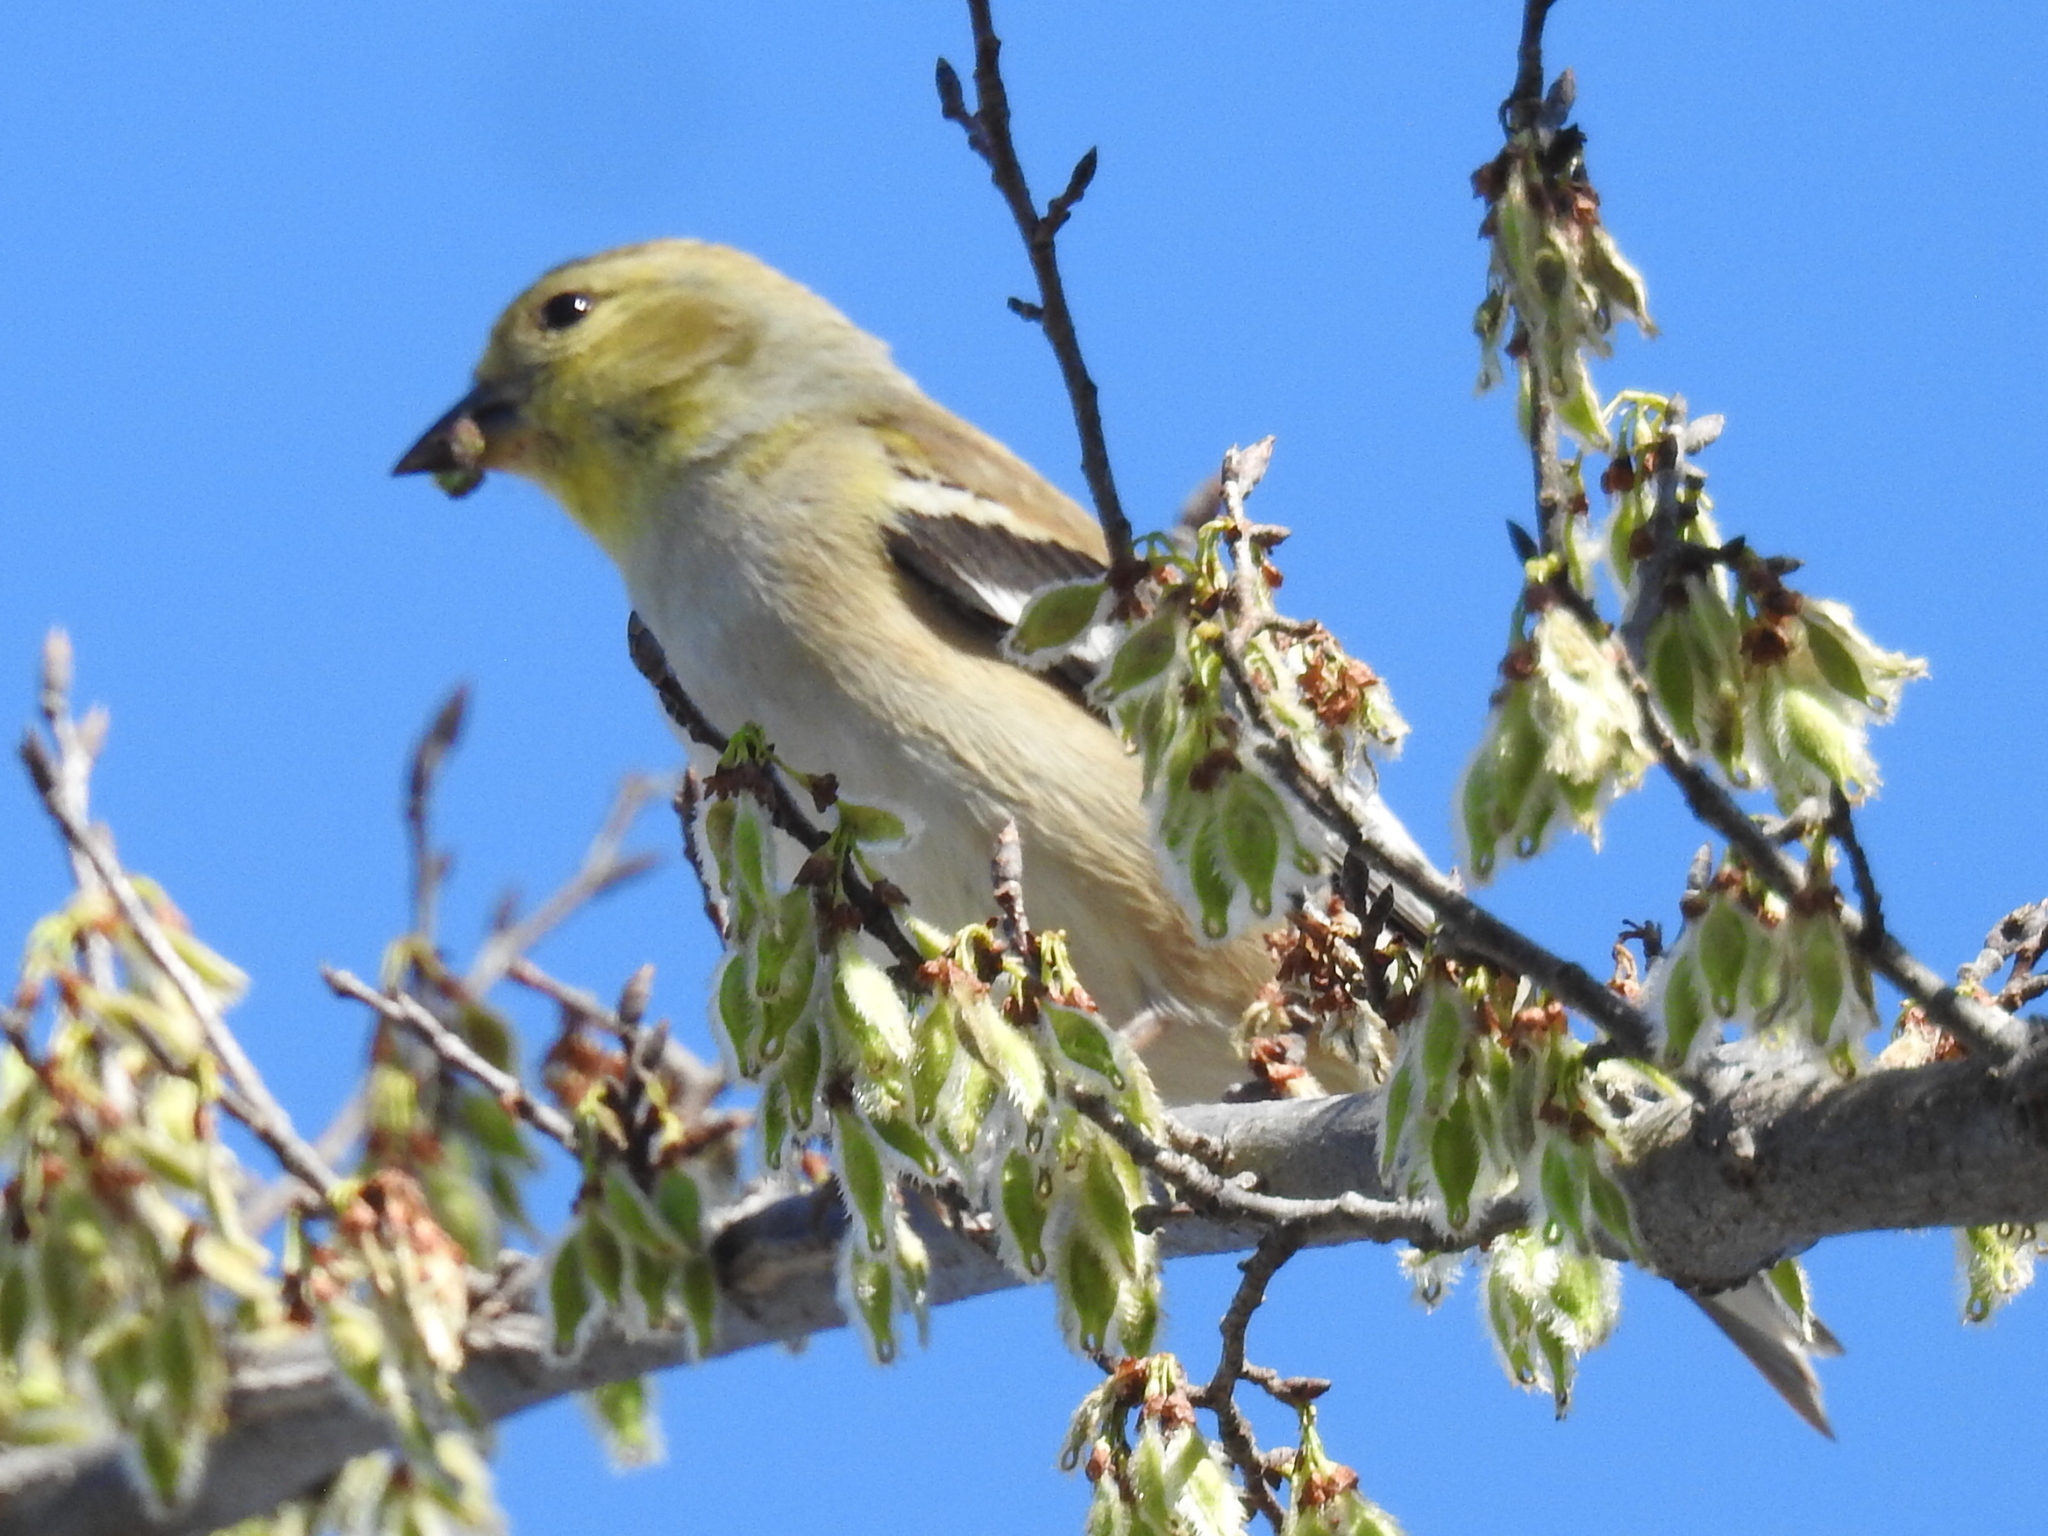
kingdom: Animalia
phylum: Chordata
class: Aves
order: Passeriformes
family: Fringillidae
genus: Spinus
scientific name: Spinus tristis
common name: American goldfinch
